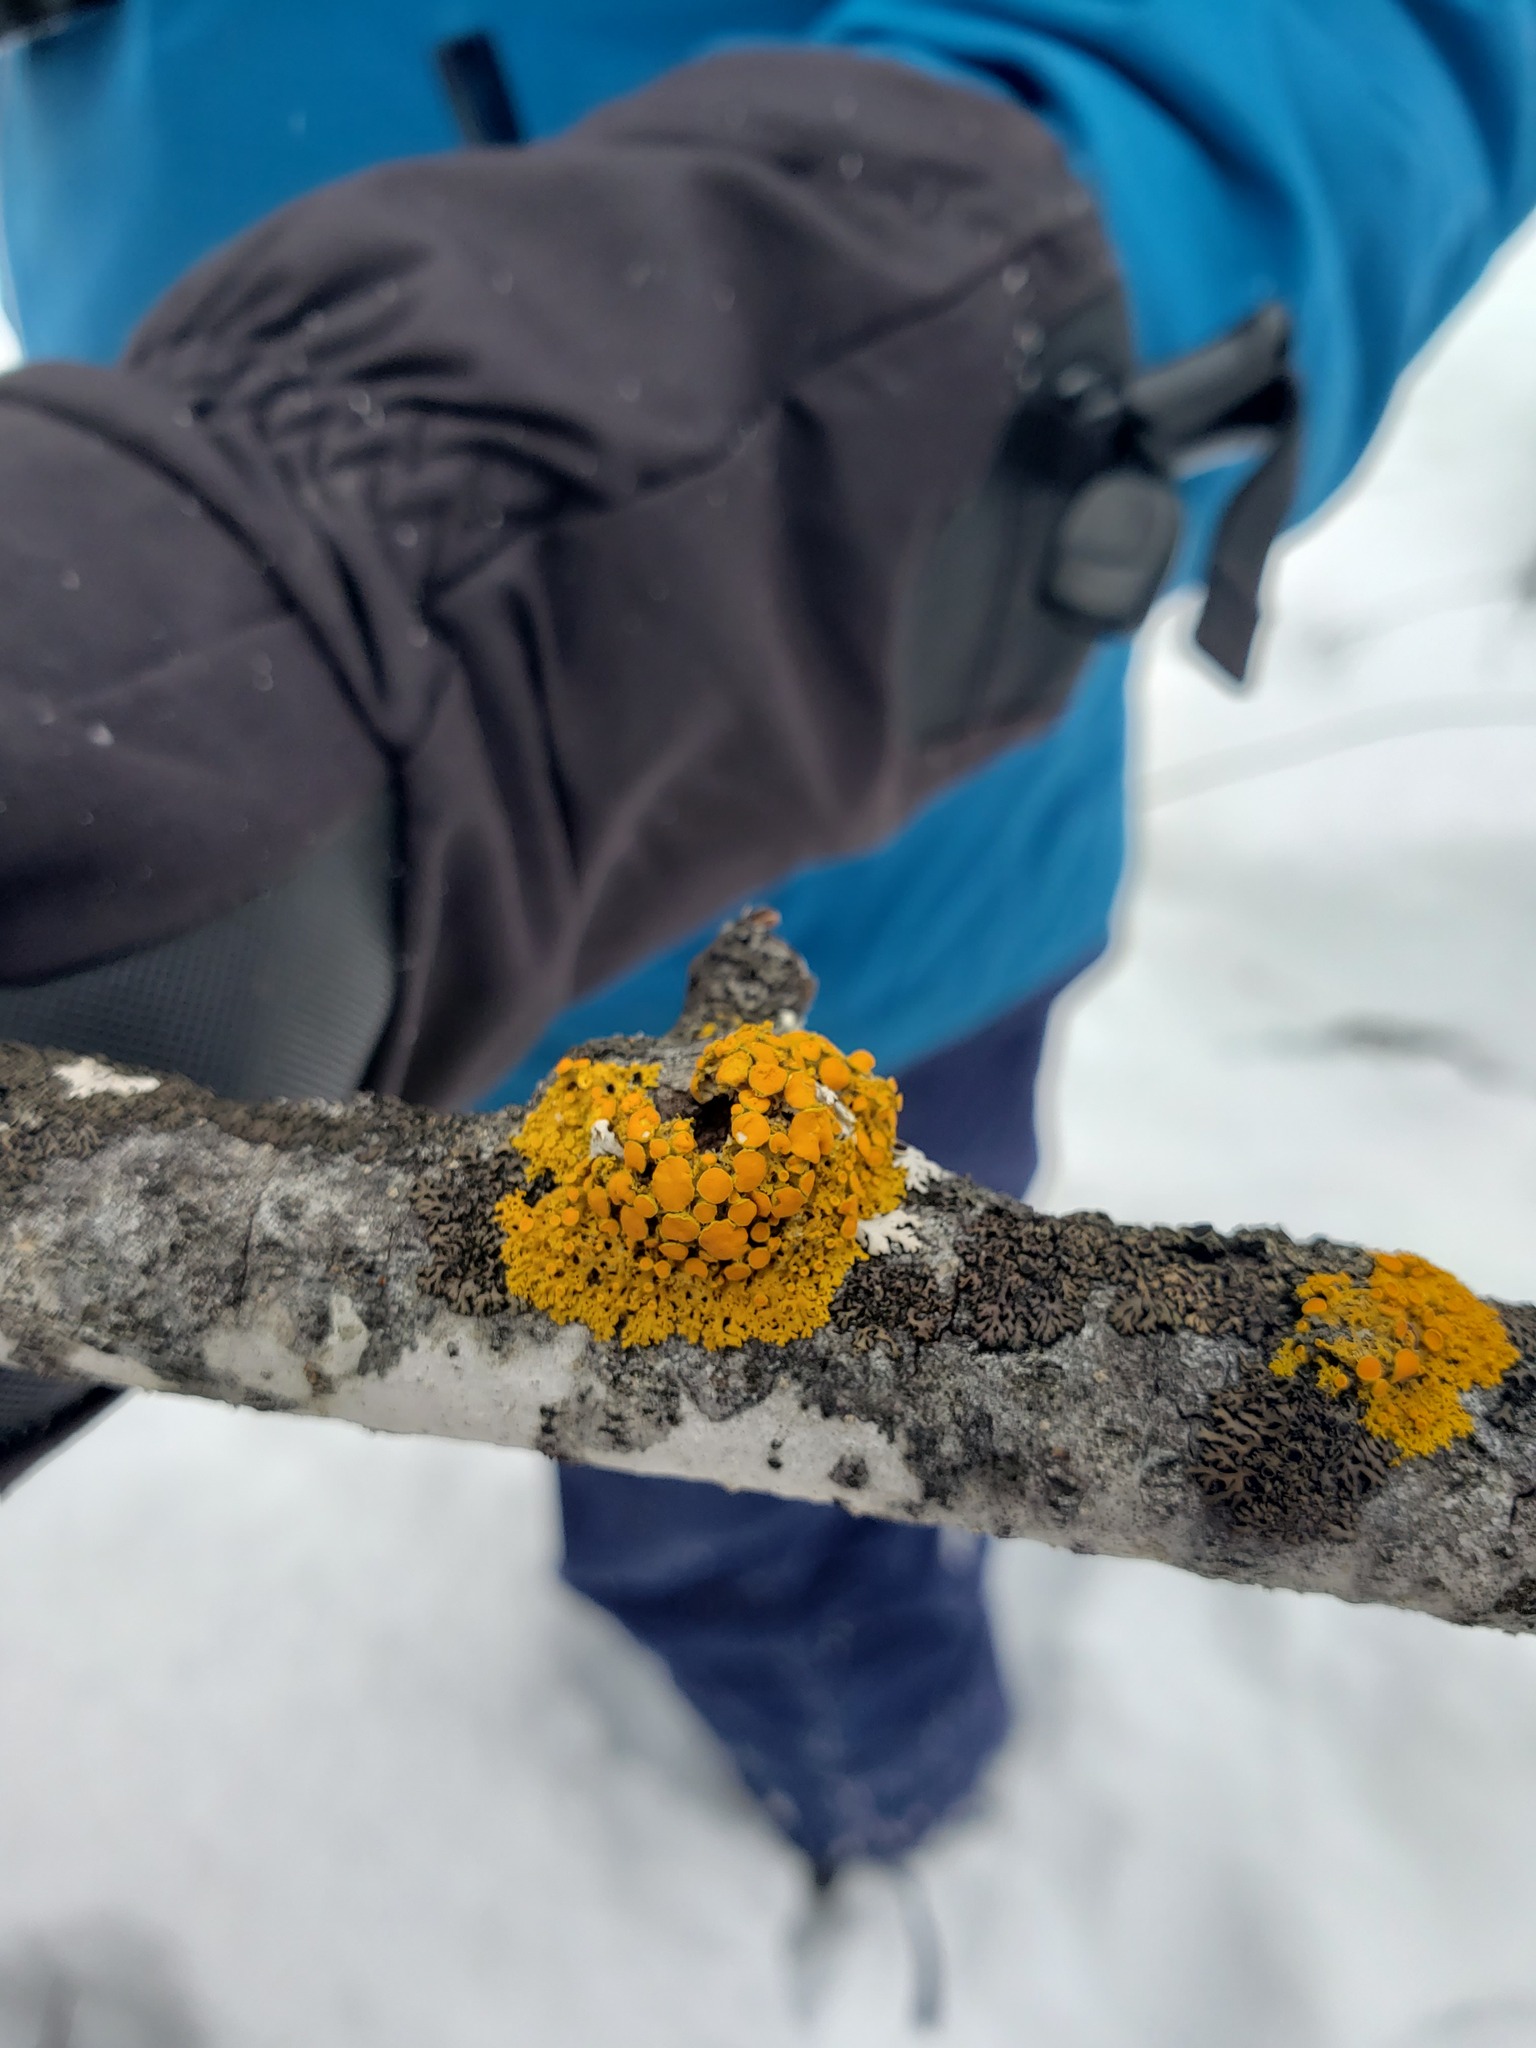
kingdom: Fungi
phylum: Ascomycota
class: Lecanoromycetes
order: Teloschistales
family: Teloschistaceae
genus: Gallowayella
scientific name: Gallowayella hasseana
